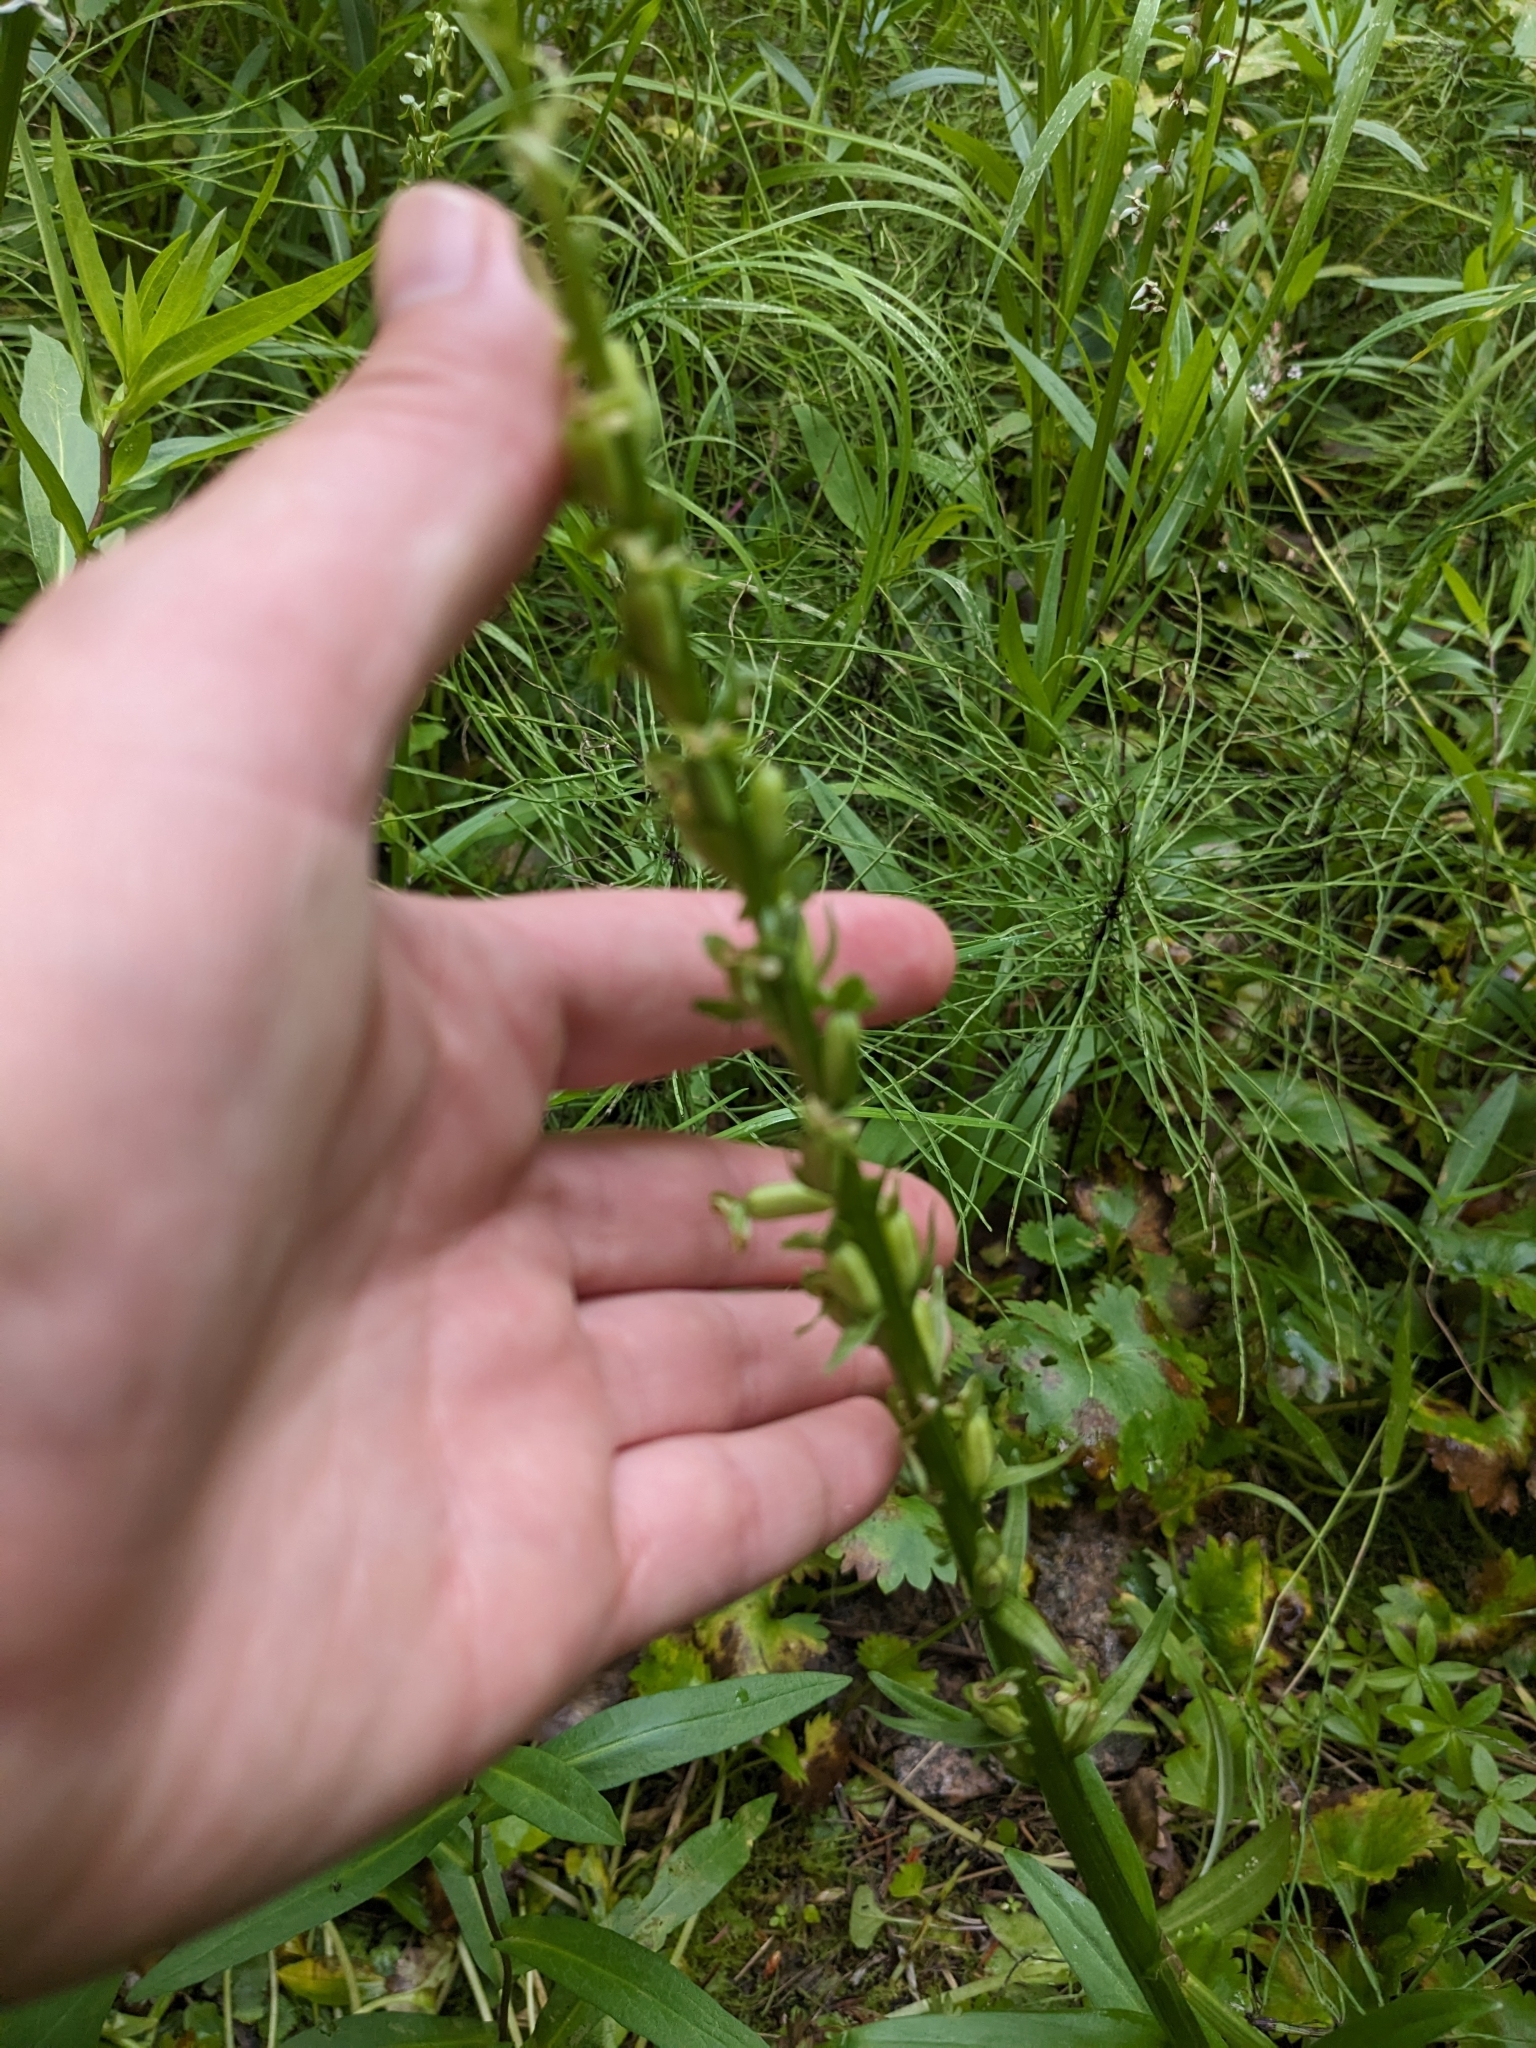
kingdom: Plantae
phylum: Tracheophyta
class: Liliopsida
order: Asparagales
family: Orchidaceae
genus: Platanthera
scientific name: Platanthera stricta
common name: Slender bog orchid
